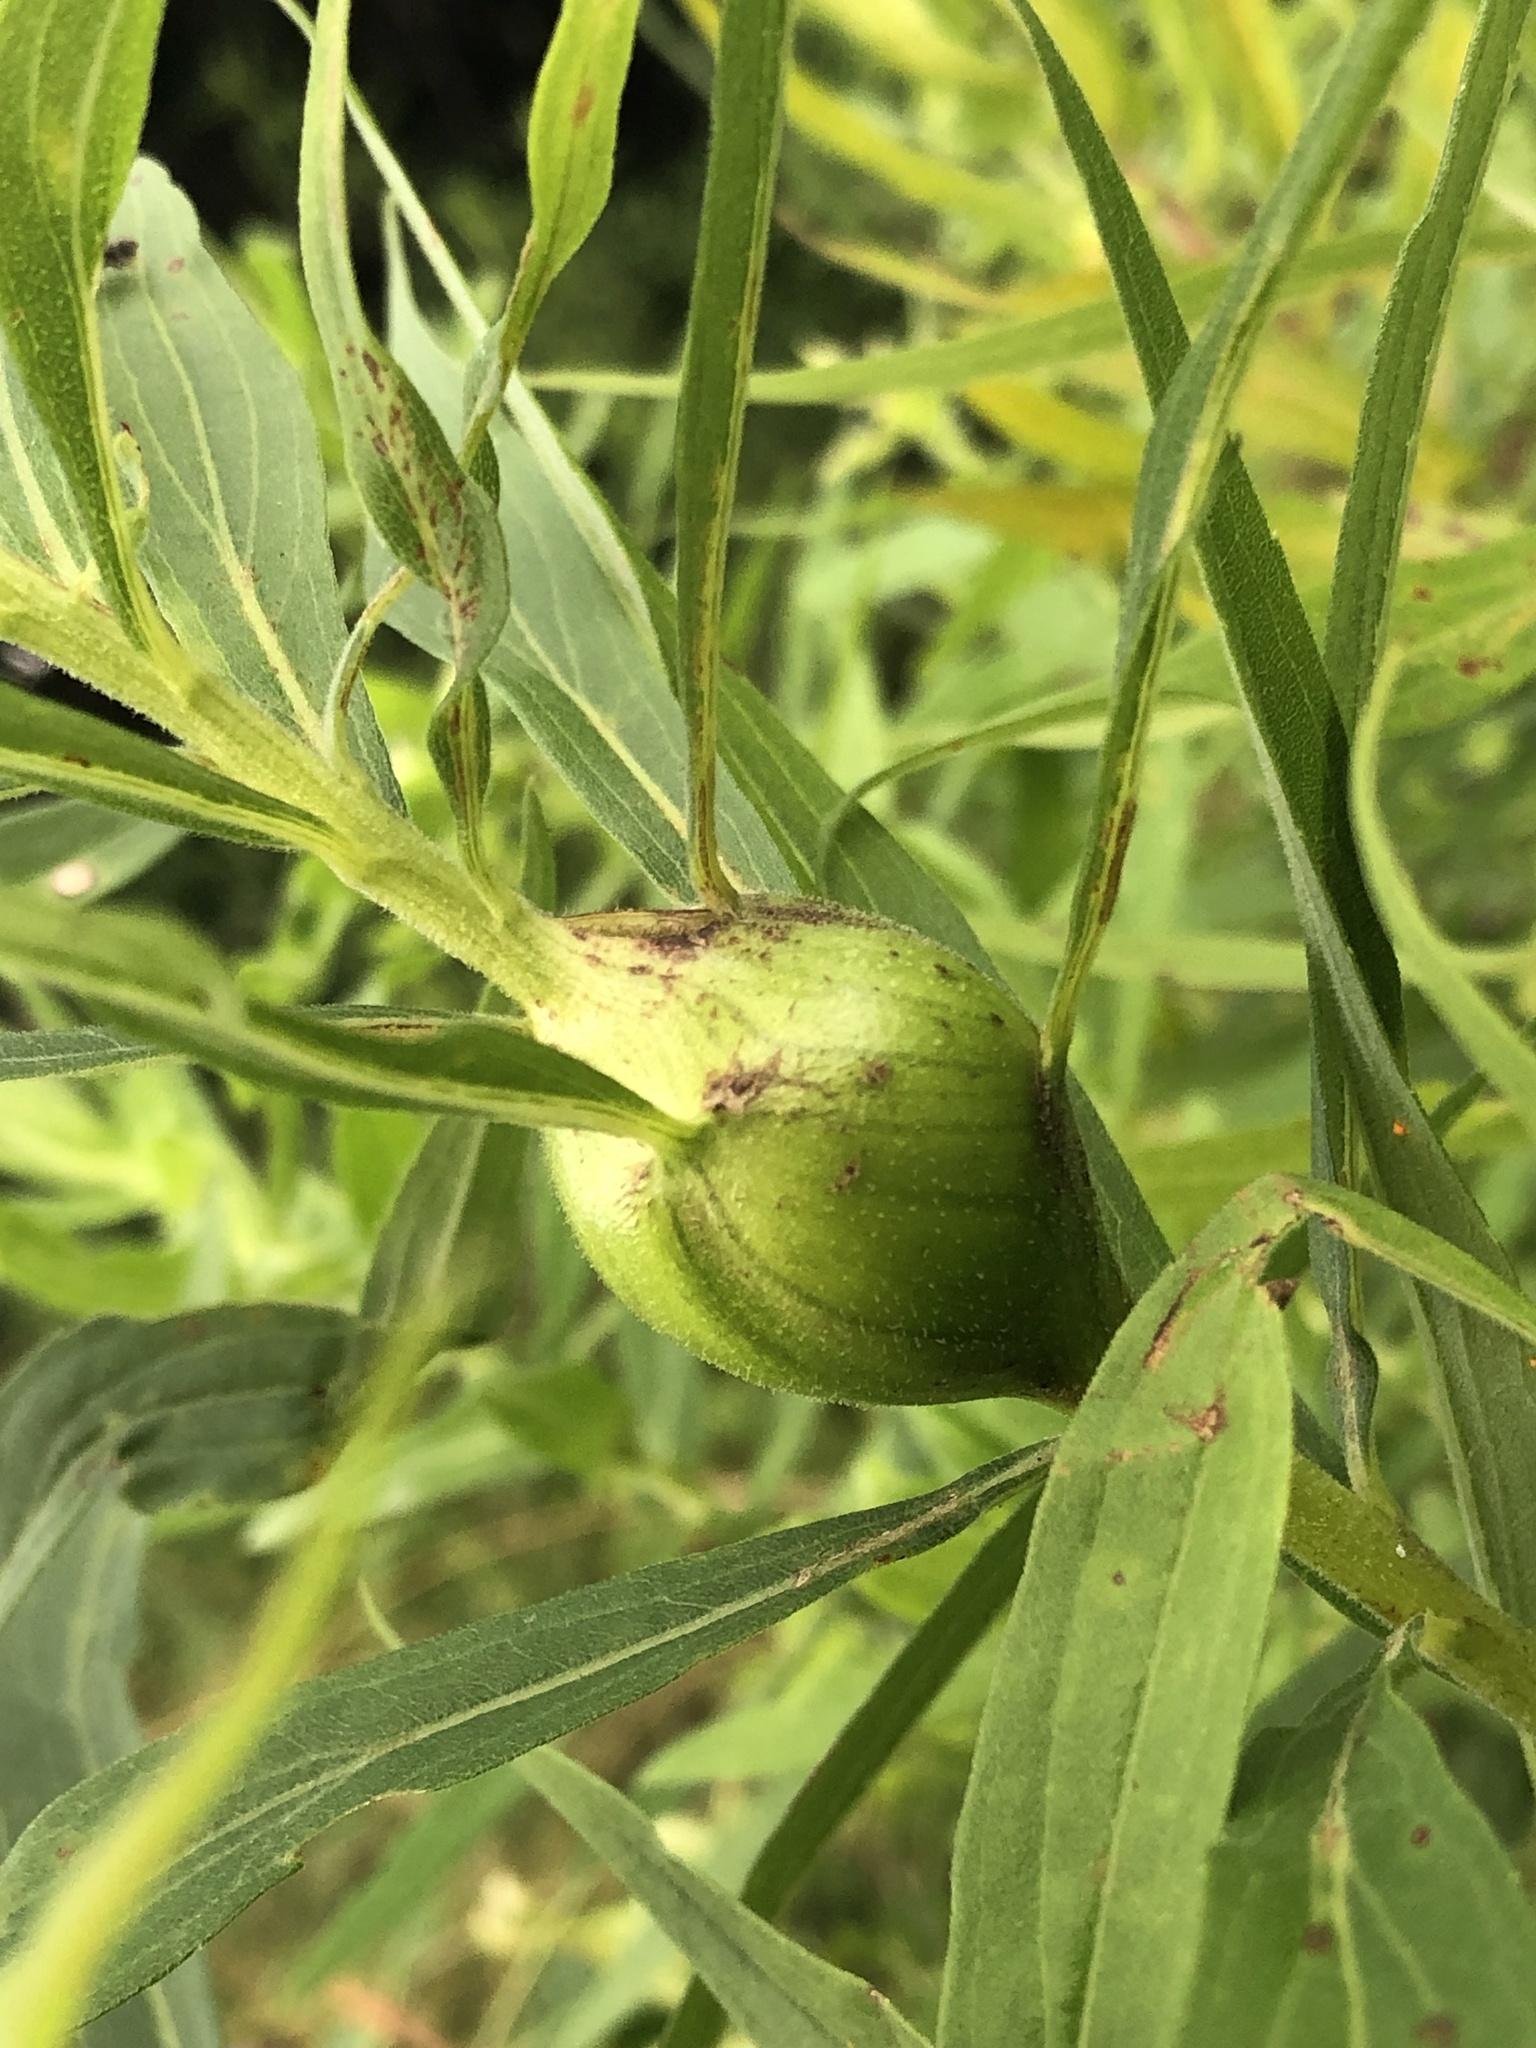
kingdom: Animalia
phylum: Arthropoda
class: Insecta
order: Diptera
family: Tephritidae
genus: Eurosta
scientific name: Eurosta solidaginis
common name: Goldenrod gall fly
